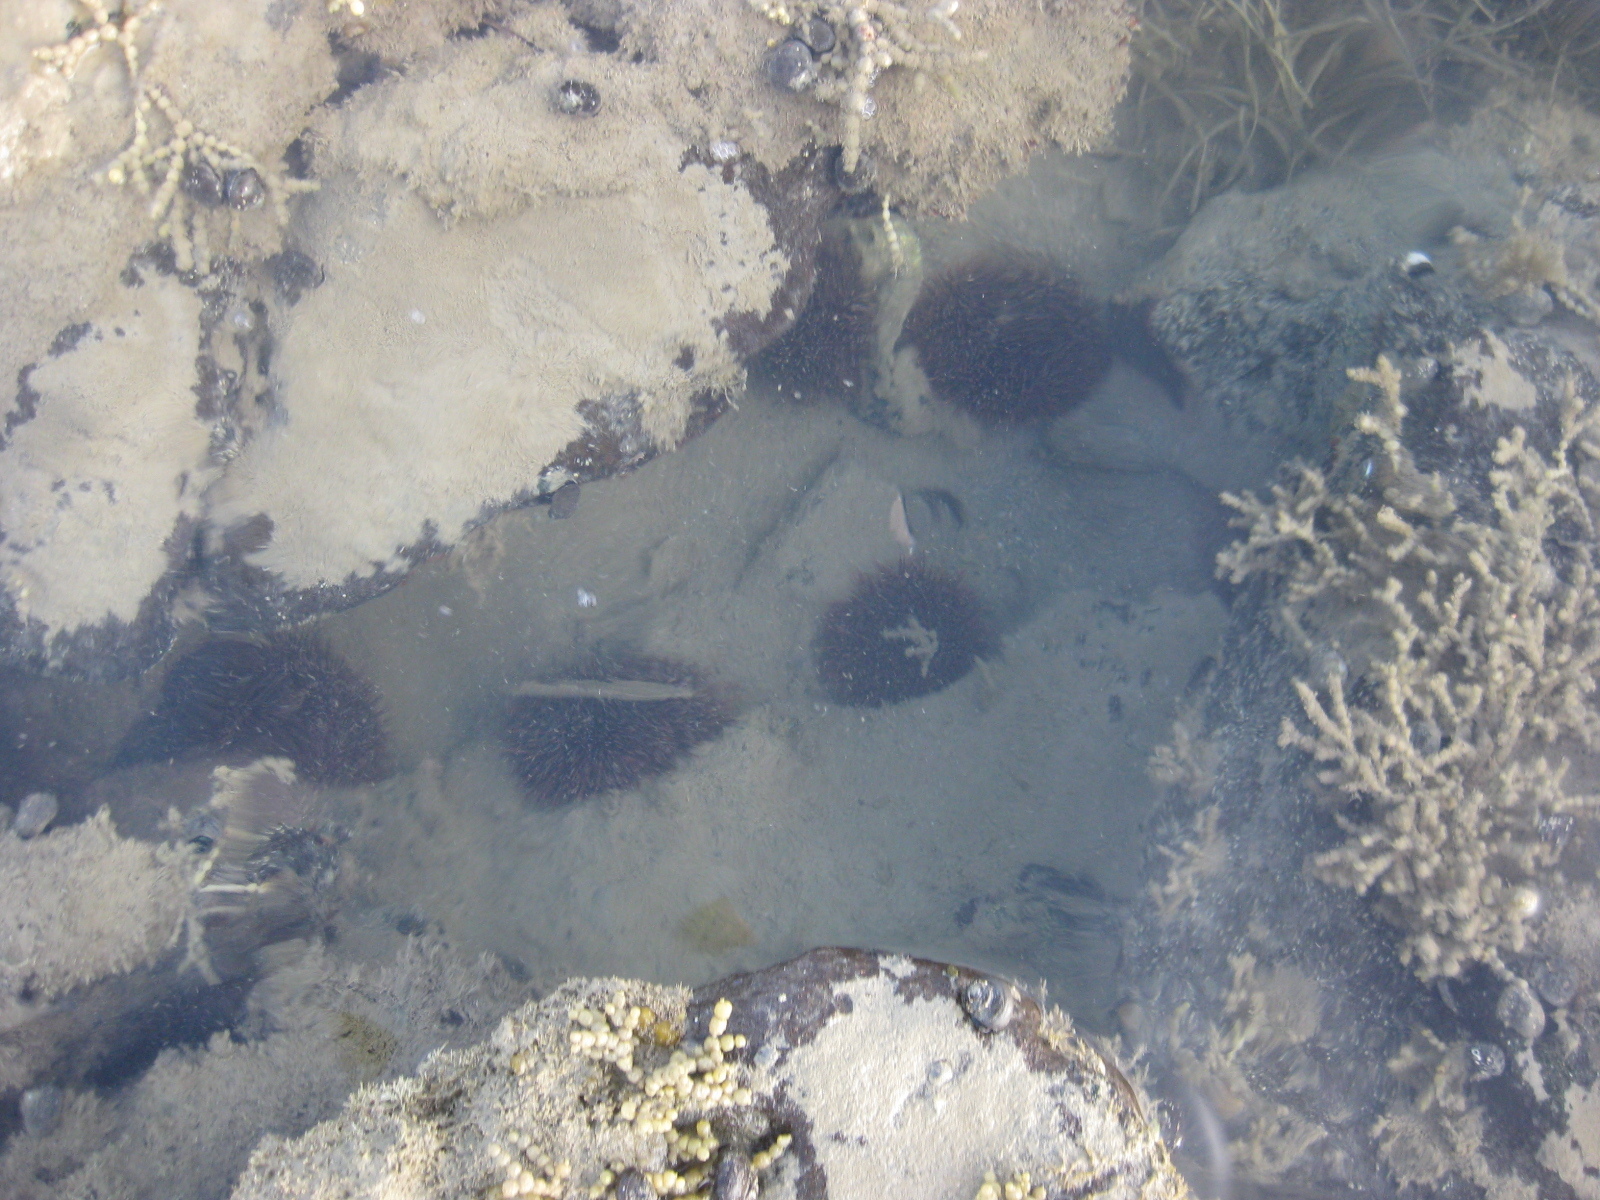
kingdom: Animalia
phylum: Echinodermata
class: Echinoidea
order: Camarodonta
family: Echinometridae
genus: Evechinus
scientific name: Evechinus chloroticus
